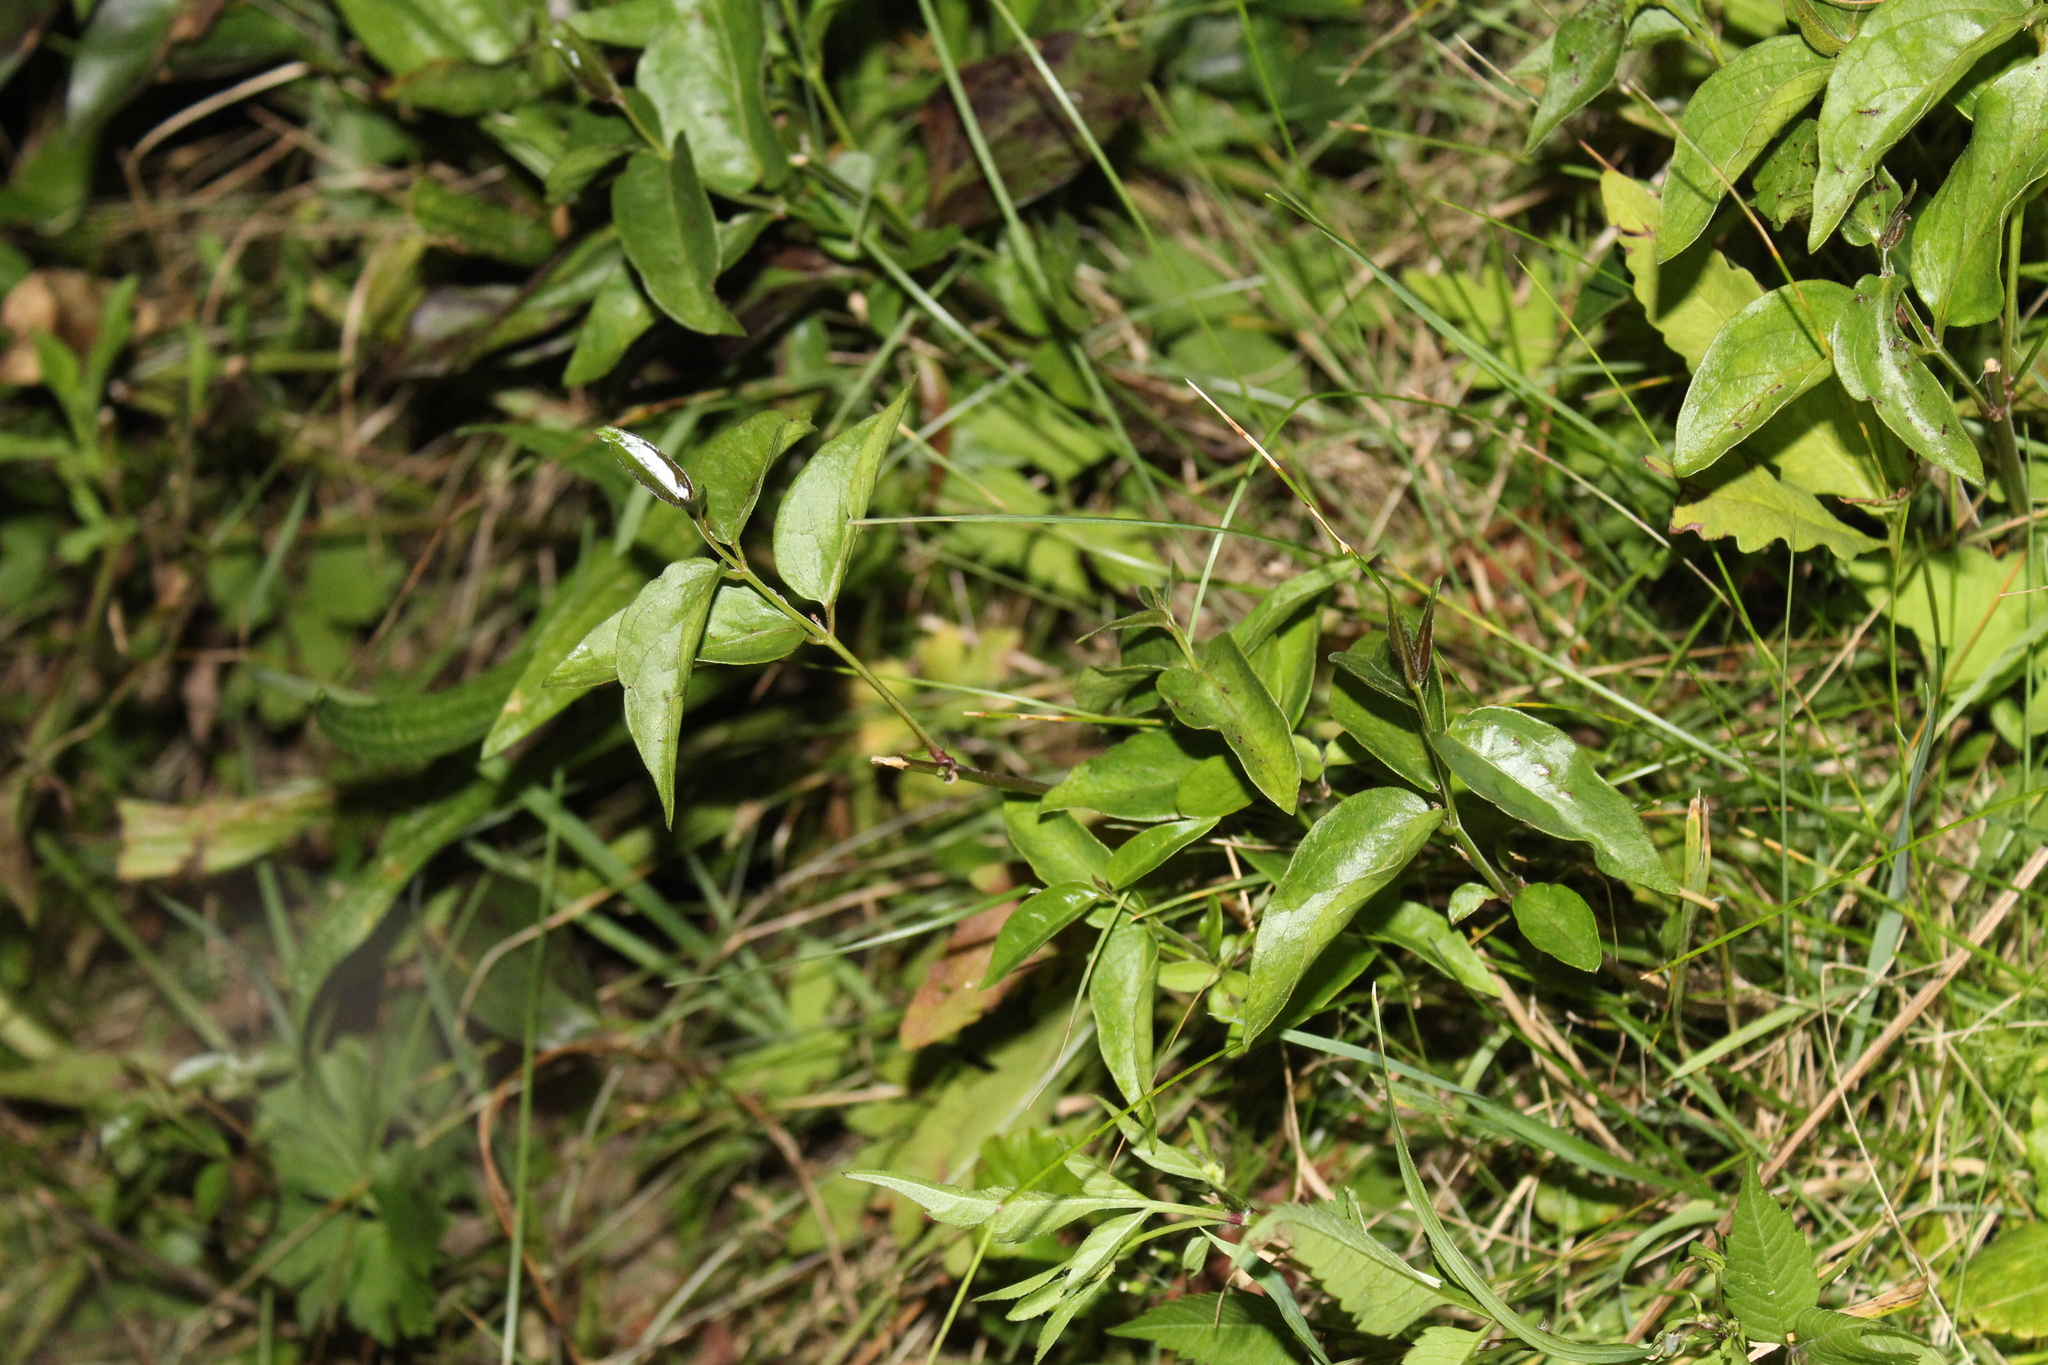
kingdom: Plantae
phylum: Tracheophyta
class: Magnoliopsida
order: Gentianales
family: Apocynaceae
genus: Vincetoxicum
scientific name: Vincetoxicum nigrum
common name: Black swallow-wort
